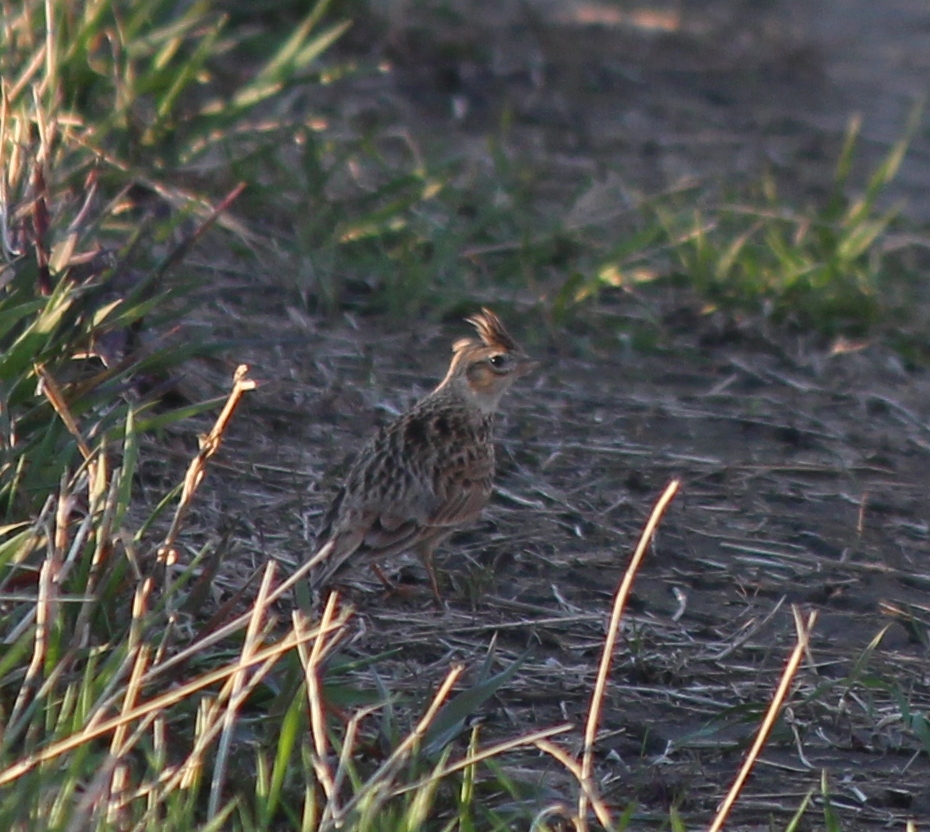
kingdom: Animalia
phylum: Chordata
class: Aves
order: Passeriformes
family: Alaudidae
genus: Alauda
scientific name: Alauda arvensis
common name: Eurasian skylark
